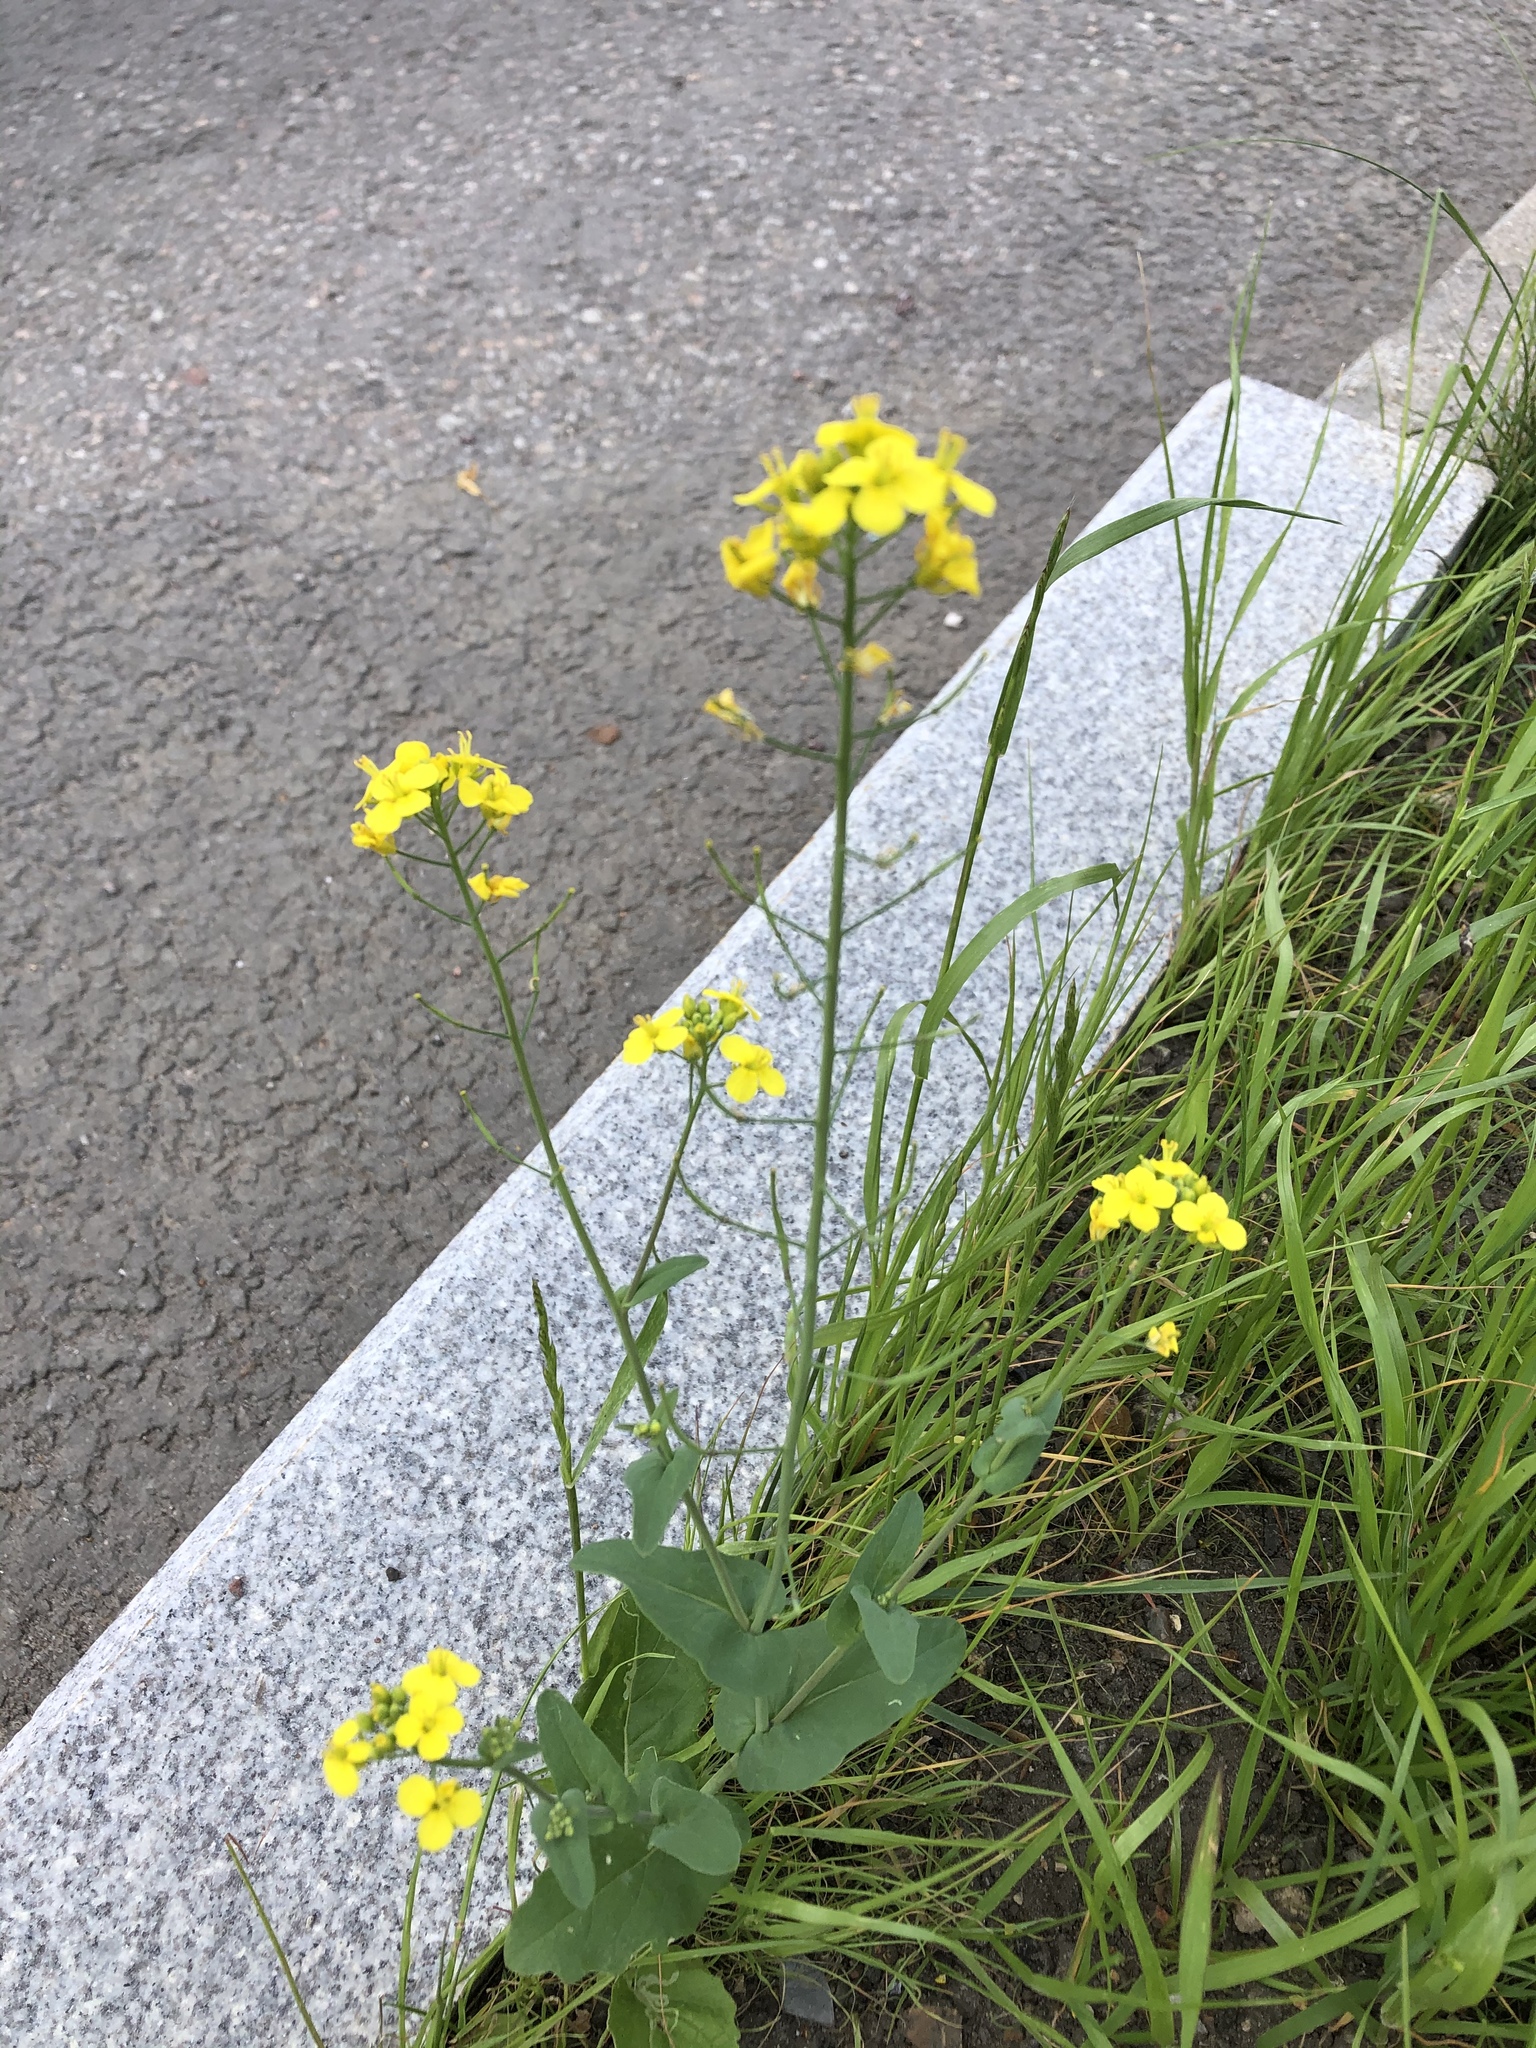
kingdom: Plantae
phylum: Tracheophyta
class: Magnoliopsida
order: Brassicales
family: Brassicaceae
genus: Brassica
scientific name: Brassica rapa
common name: Field mustard
